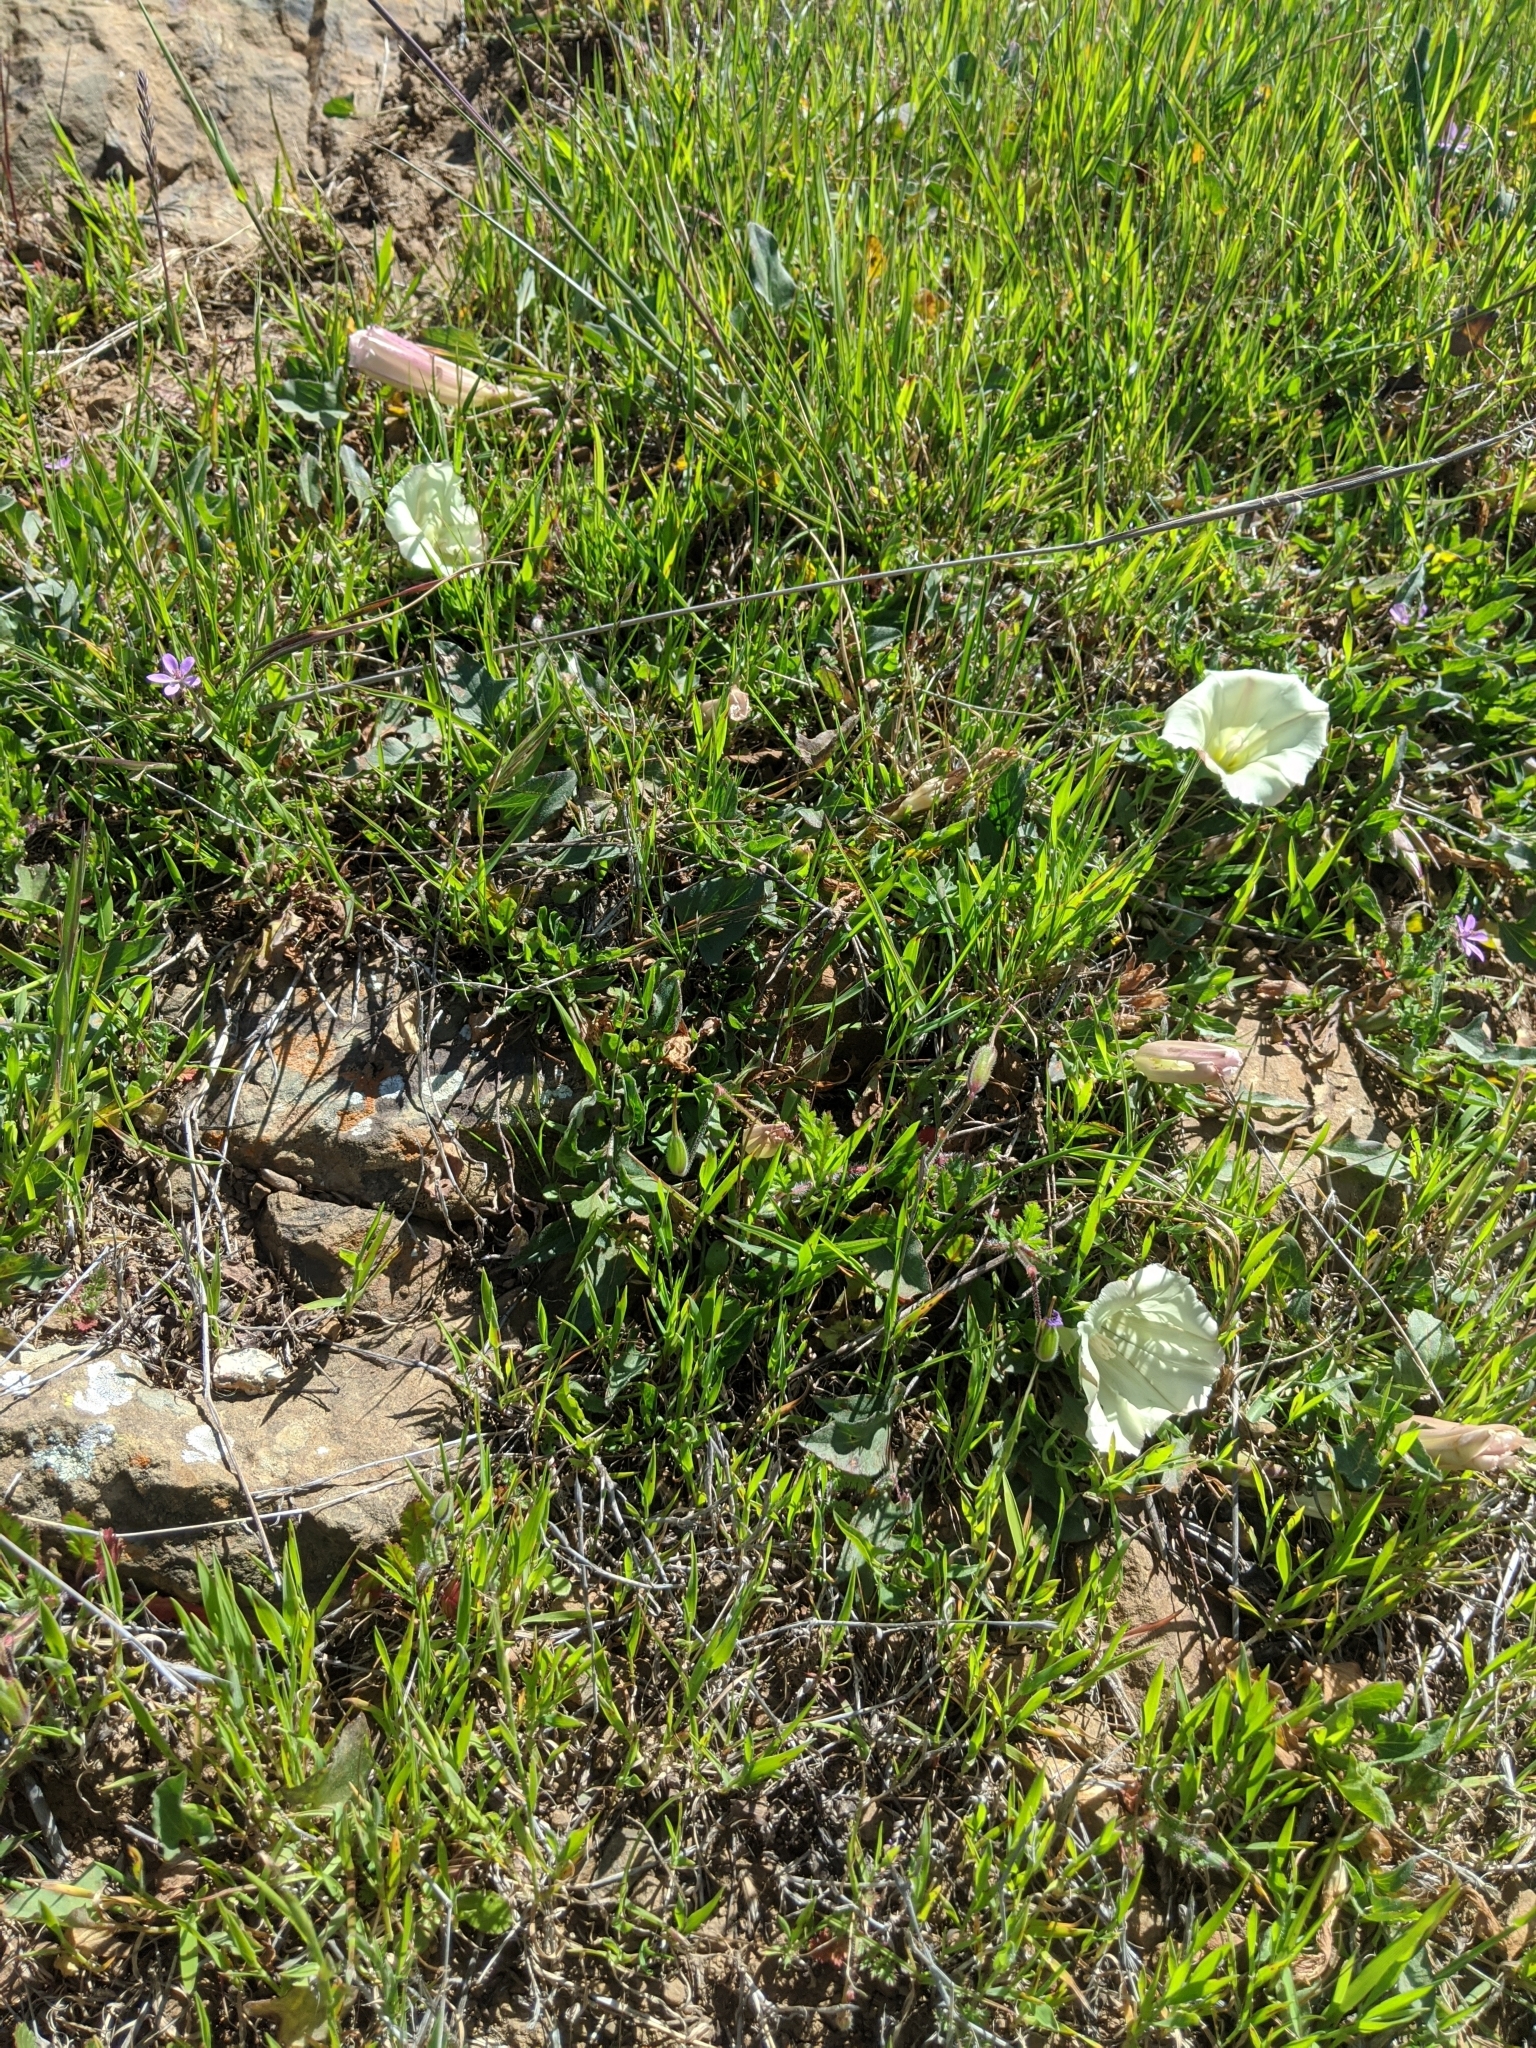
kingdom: Plantae
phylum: Tracheophyta
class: Magnoliopsida
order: Solanales
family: Convolvulaceae
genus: Calystegia
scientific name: Calystegia subacaulis
